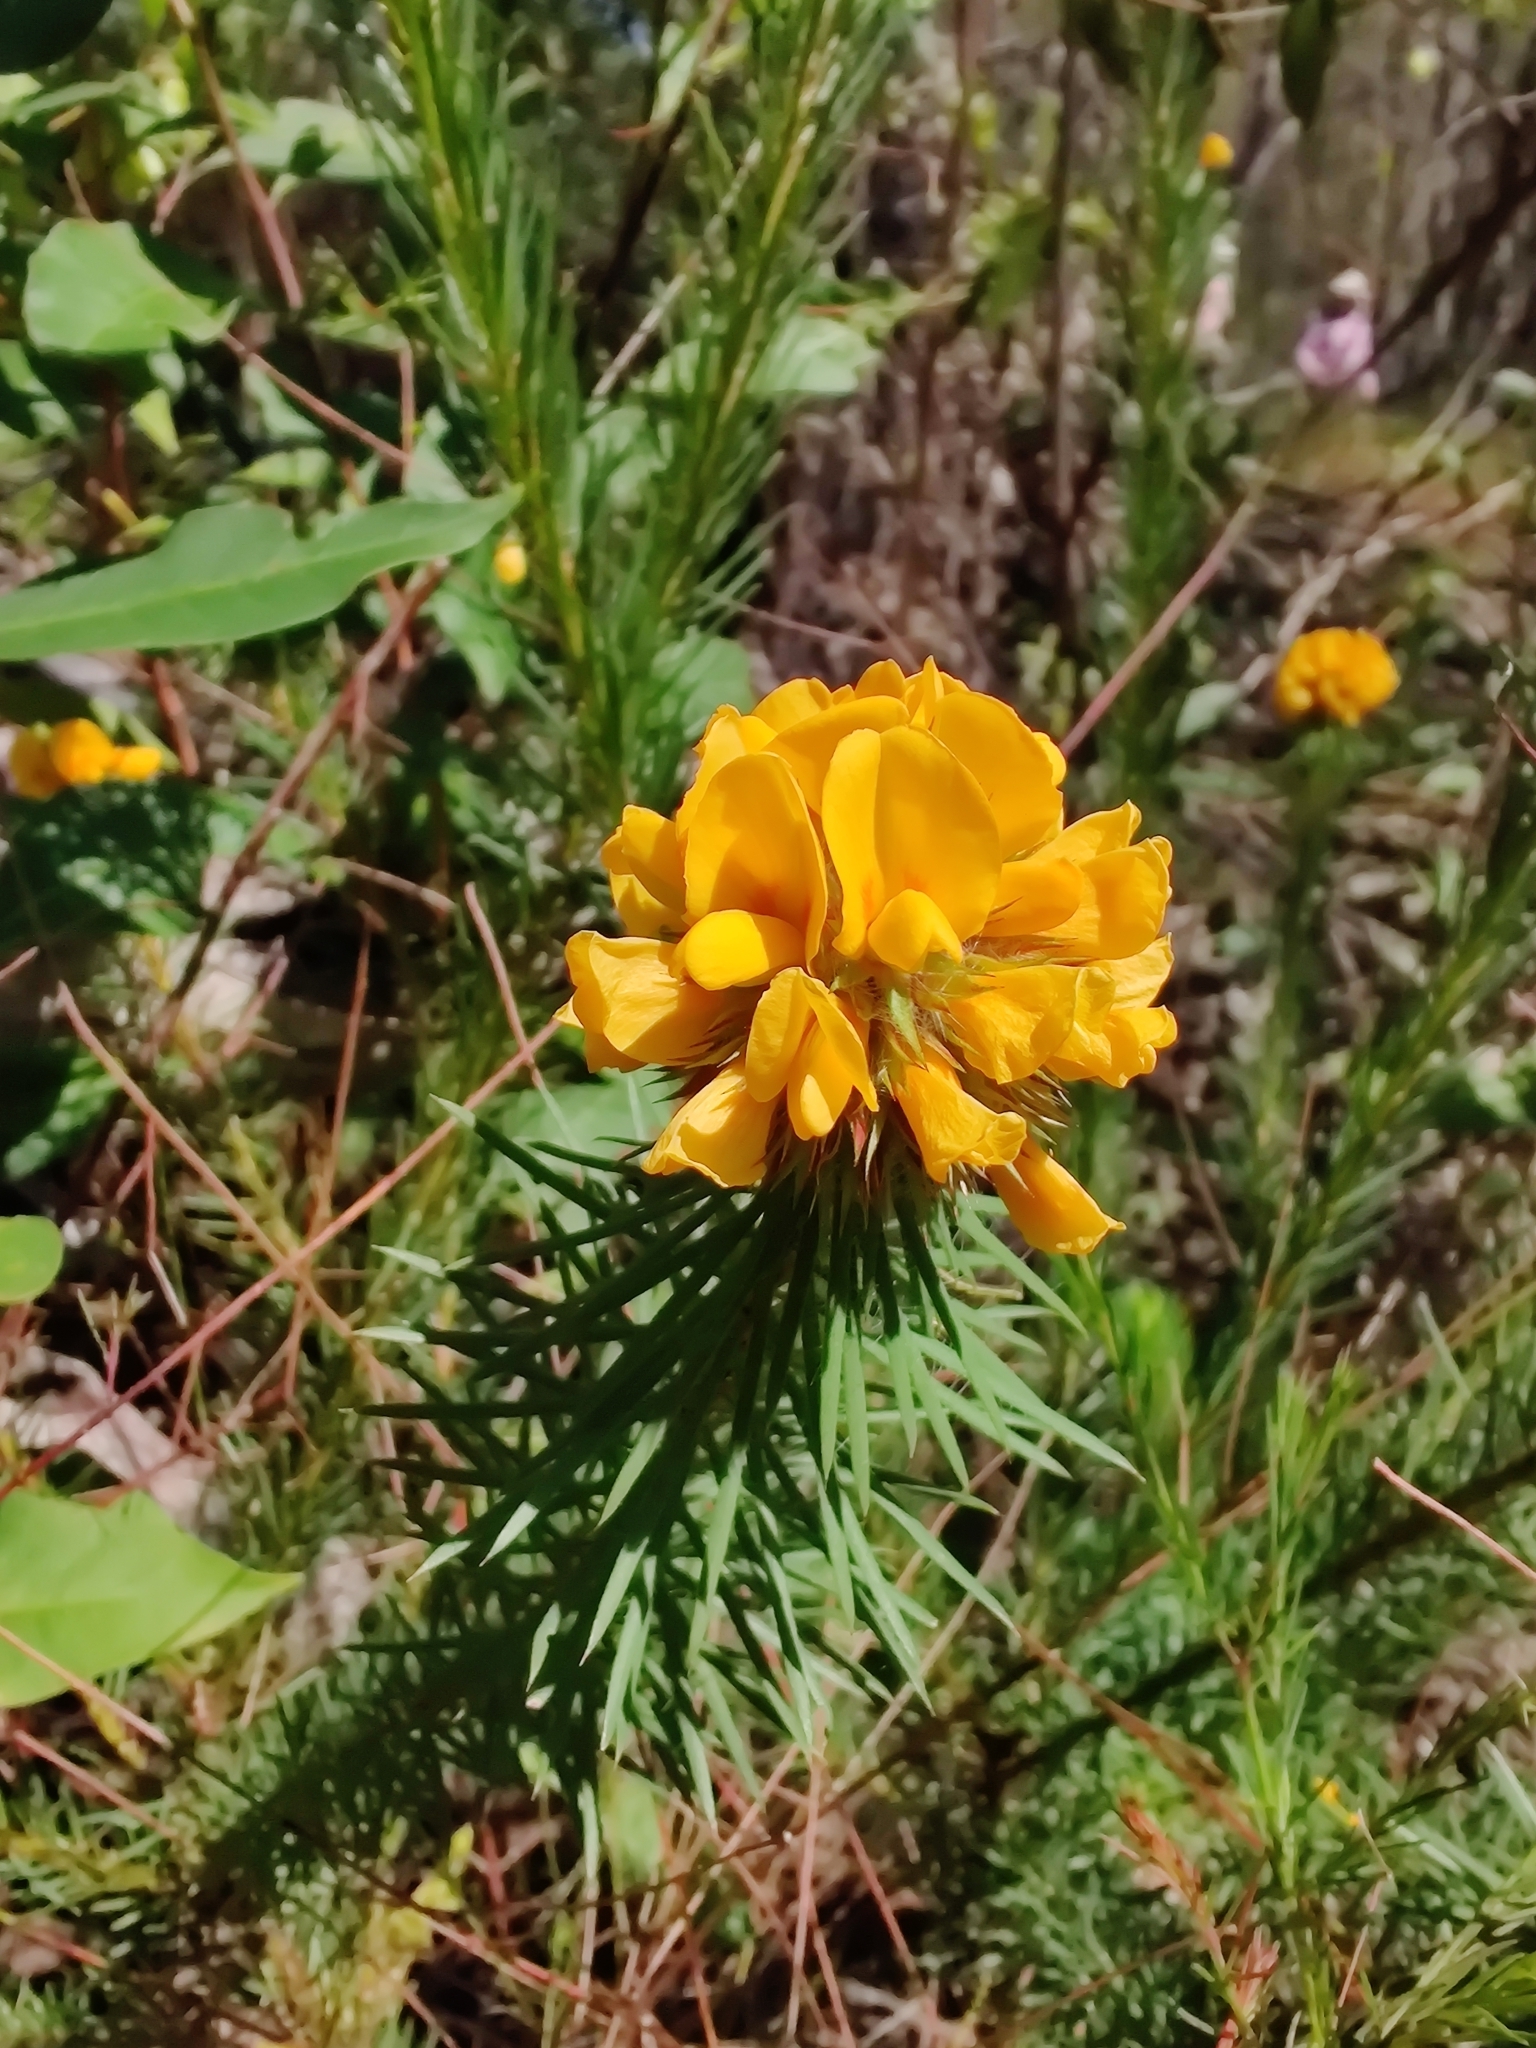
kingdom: Plantae
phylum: Tracheophyta
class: Magnoliopsida
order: Fabales
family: Fabaceae
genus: Pultenaea
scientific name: Pultenaea stipularis
